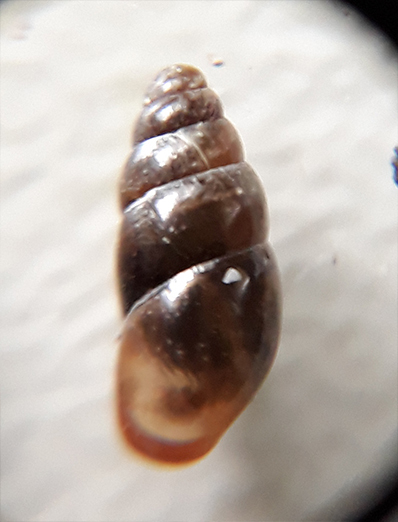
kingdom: Animalia
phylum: Mollusca
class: Gastropoda
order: Stylommatophora
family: Cochlicopidae
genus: Cochlicopa
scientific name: Cochlicopa lubrica
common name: Glossy pillar snail
